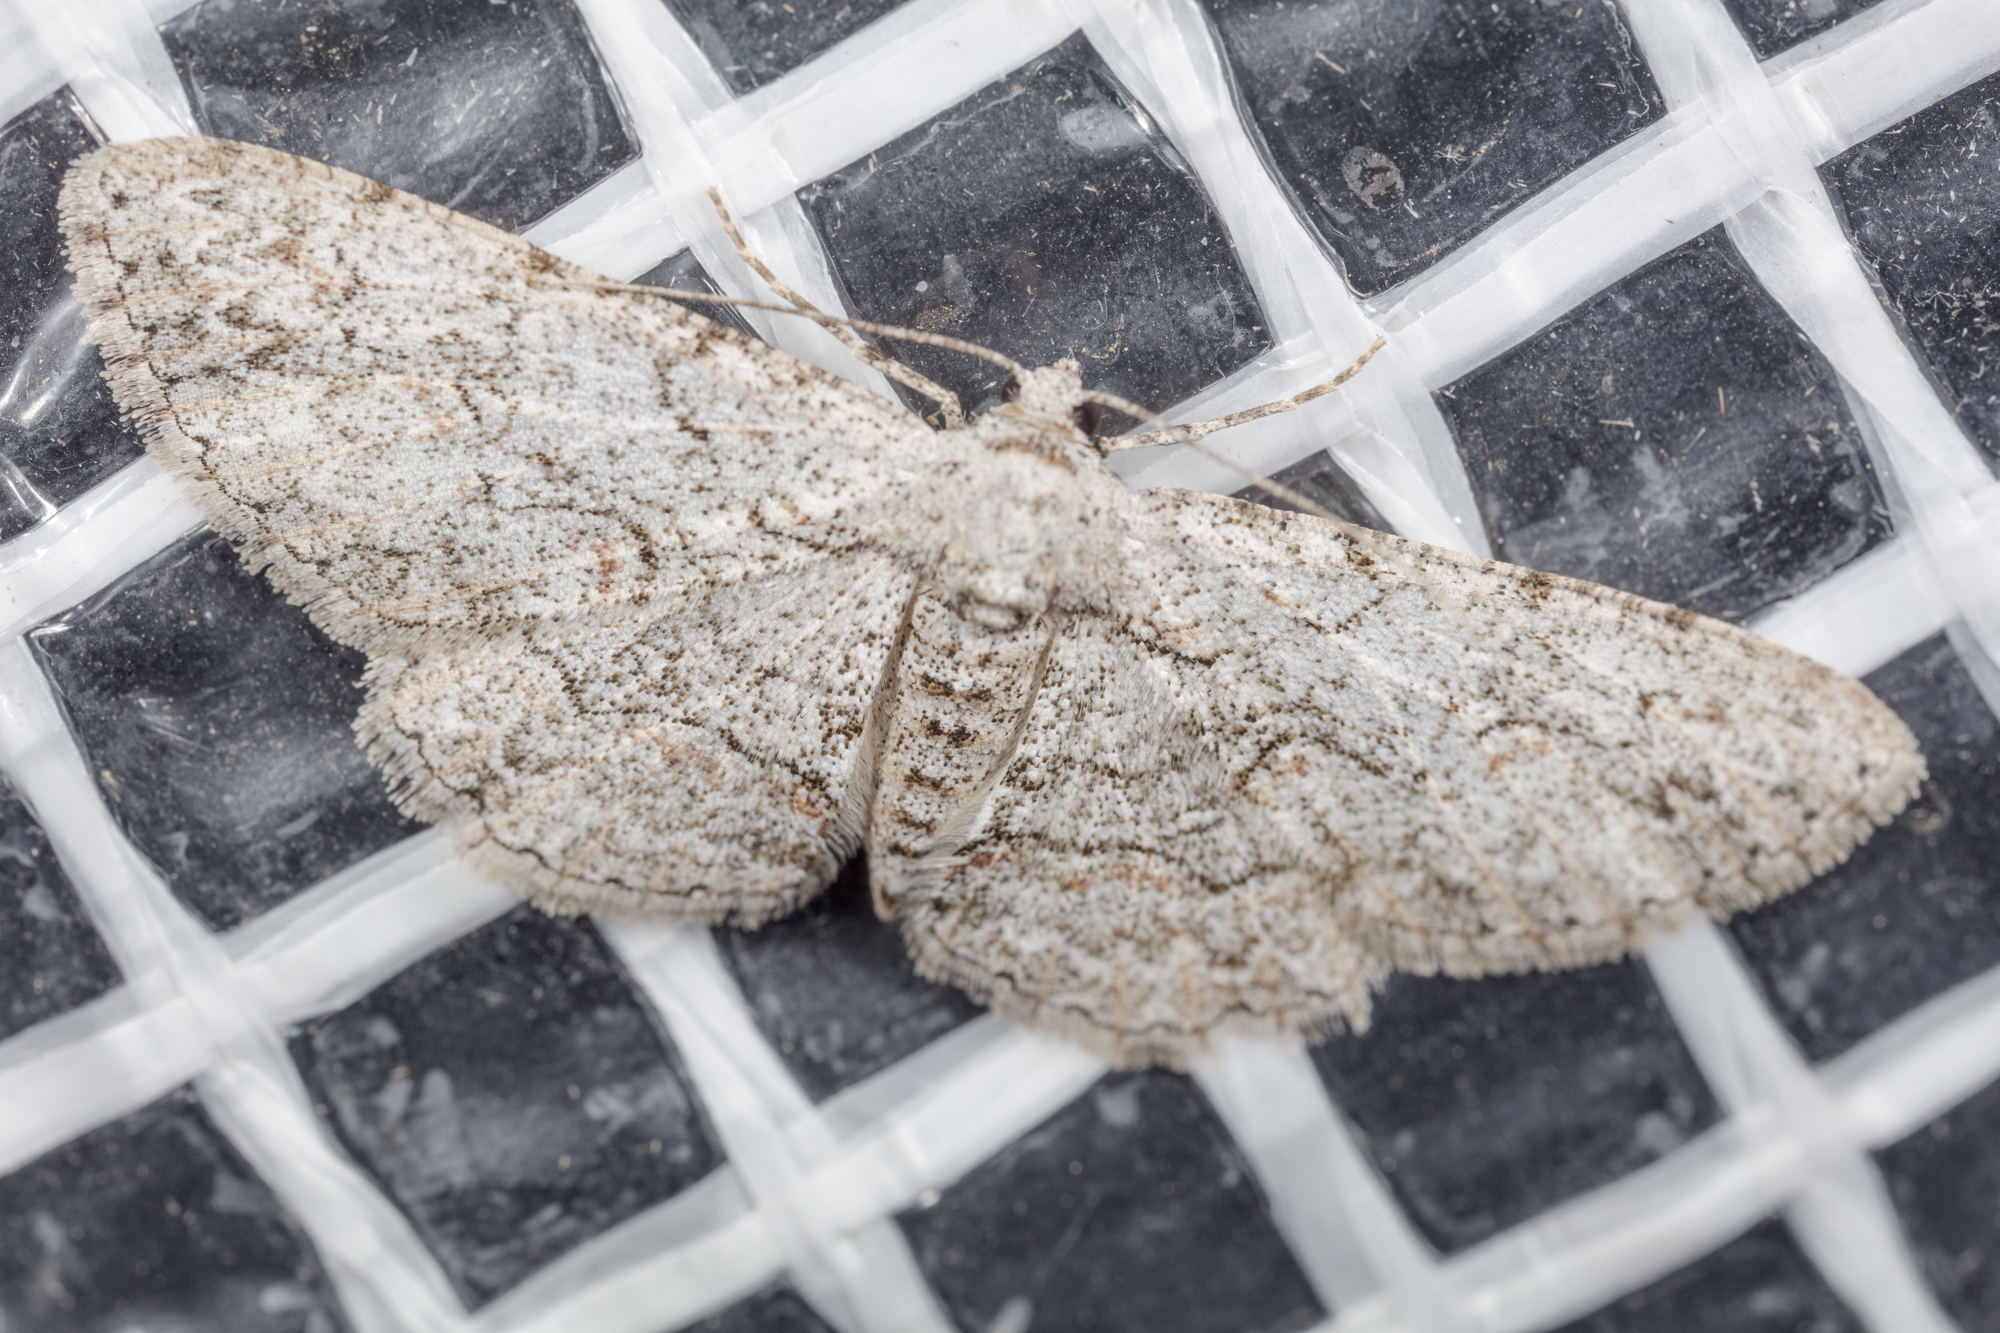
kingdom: Animalia
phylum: Arthropoda
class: Insecta
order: Lepidoptera
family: Geometridae
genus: Iridopsis
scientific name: Iridopsis defectaria
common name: Brown-shaded gray
